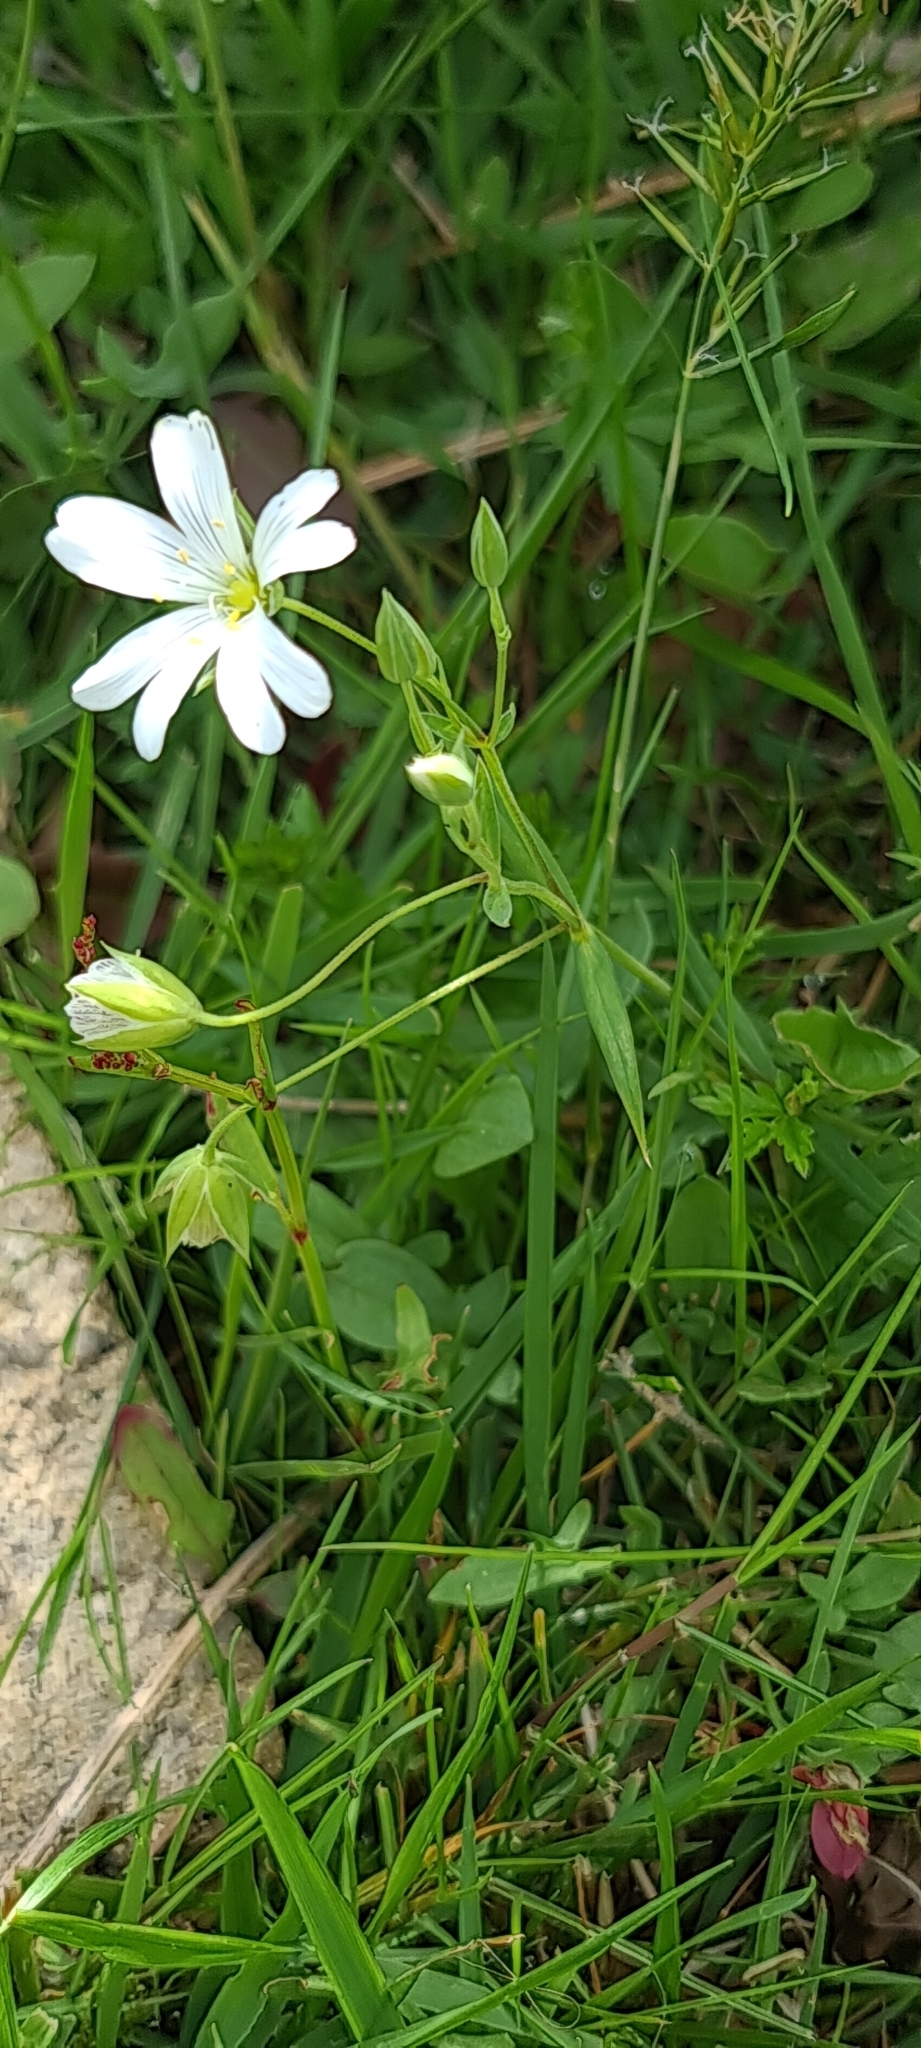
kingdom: Plantae
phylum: Tracheophyta
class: Magnoliopsida
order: Caryophyllales
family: Caryophyllaceae
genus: Rabelera
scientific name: Rabelera holostea
